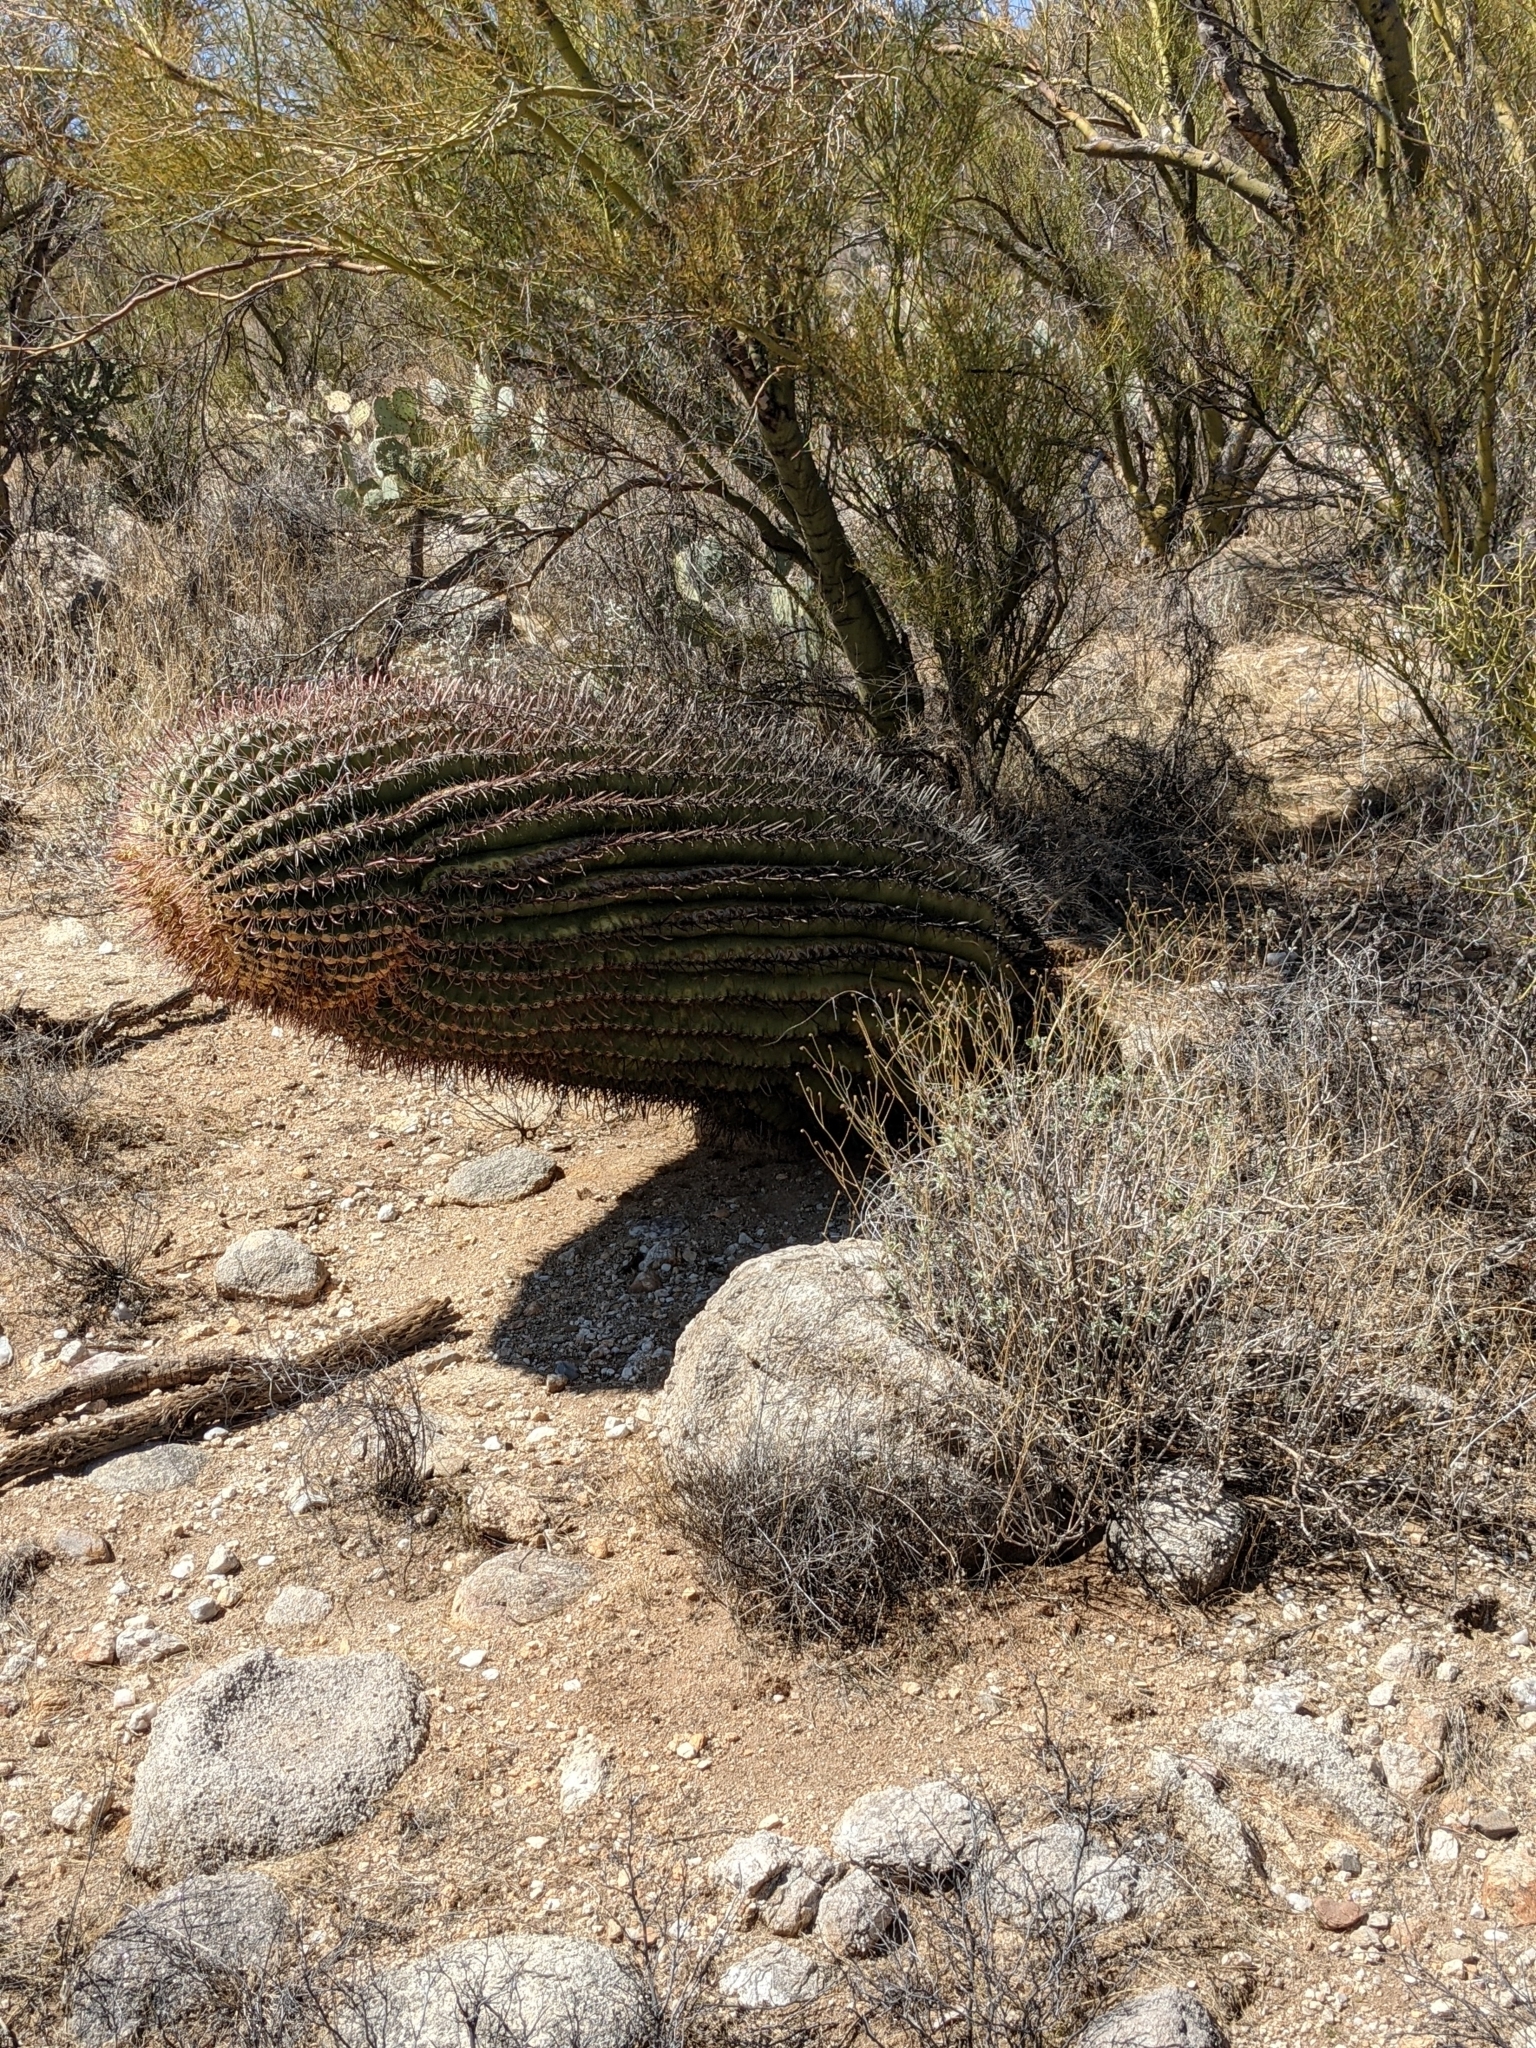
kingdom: Plantae
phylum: Tracheophyta
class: Magnoliopsida
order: Caryophyllales
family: Cactaceae
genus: Ferocactus
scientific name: Ferocactus wislizeni
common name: Candy barrel cactus
